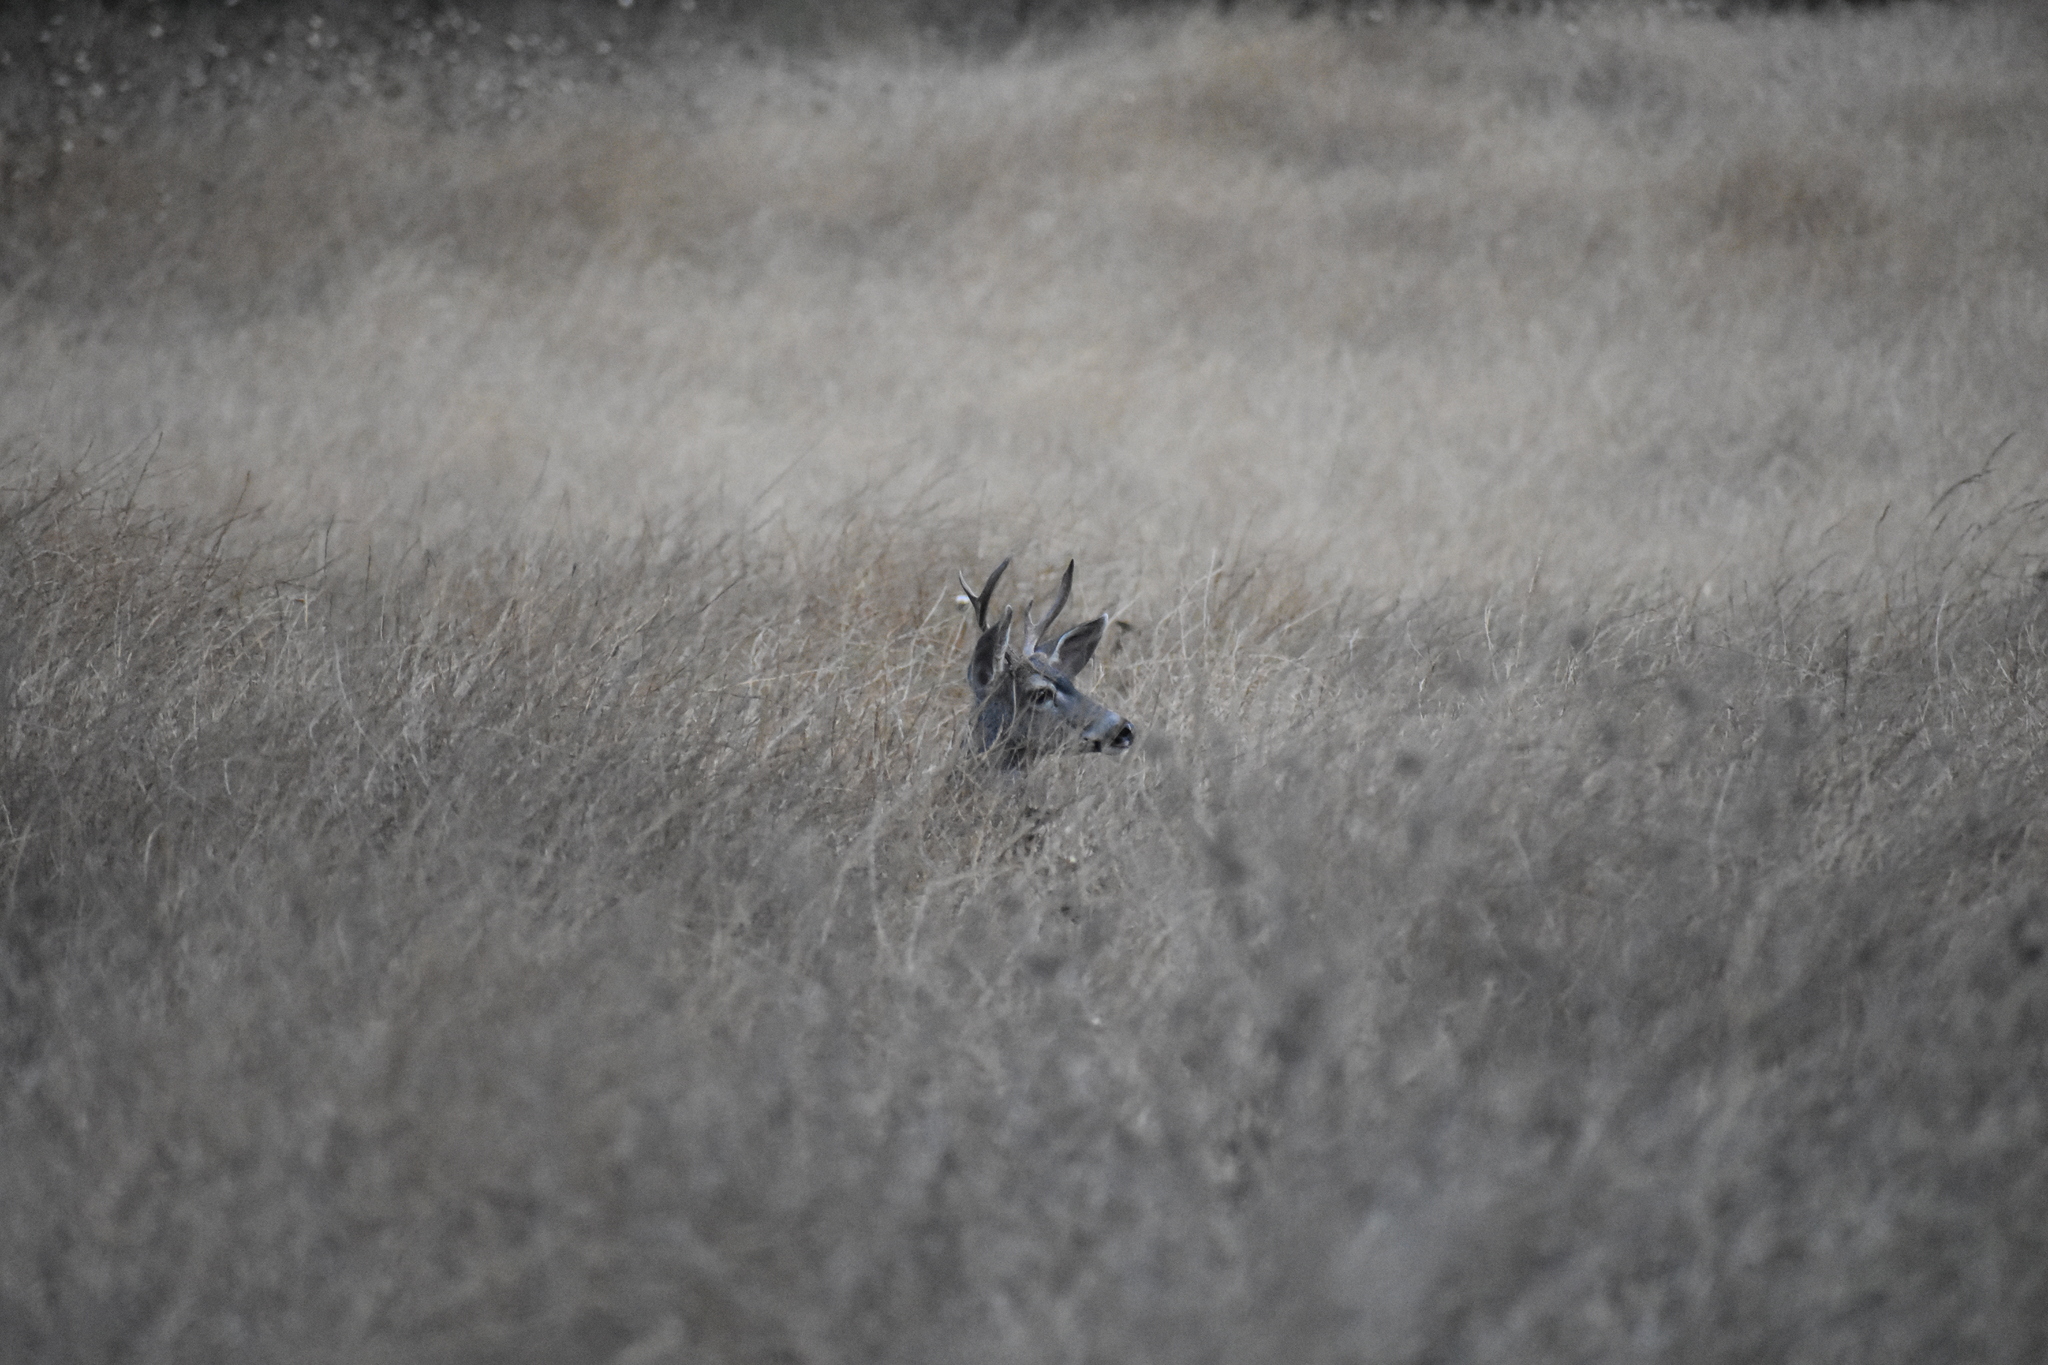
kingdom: Animalia
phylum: Chordata
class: Mammalia
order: Artiodactyla
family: Cervidae
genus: Odocoileus
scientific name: Odocoileus hemionus
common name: Mule deer
